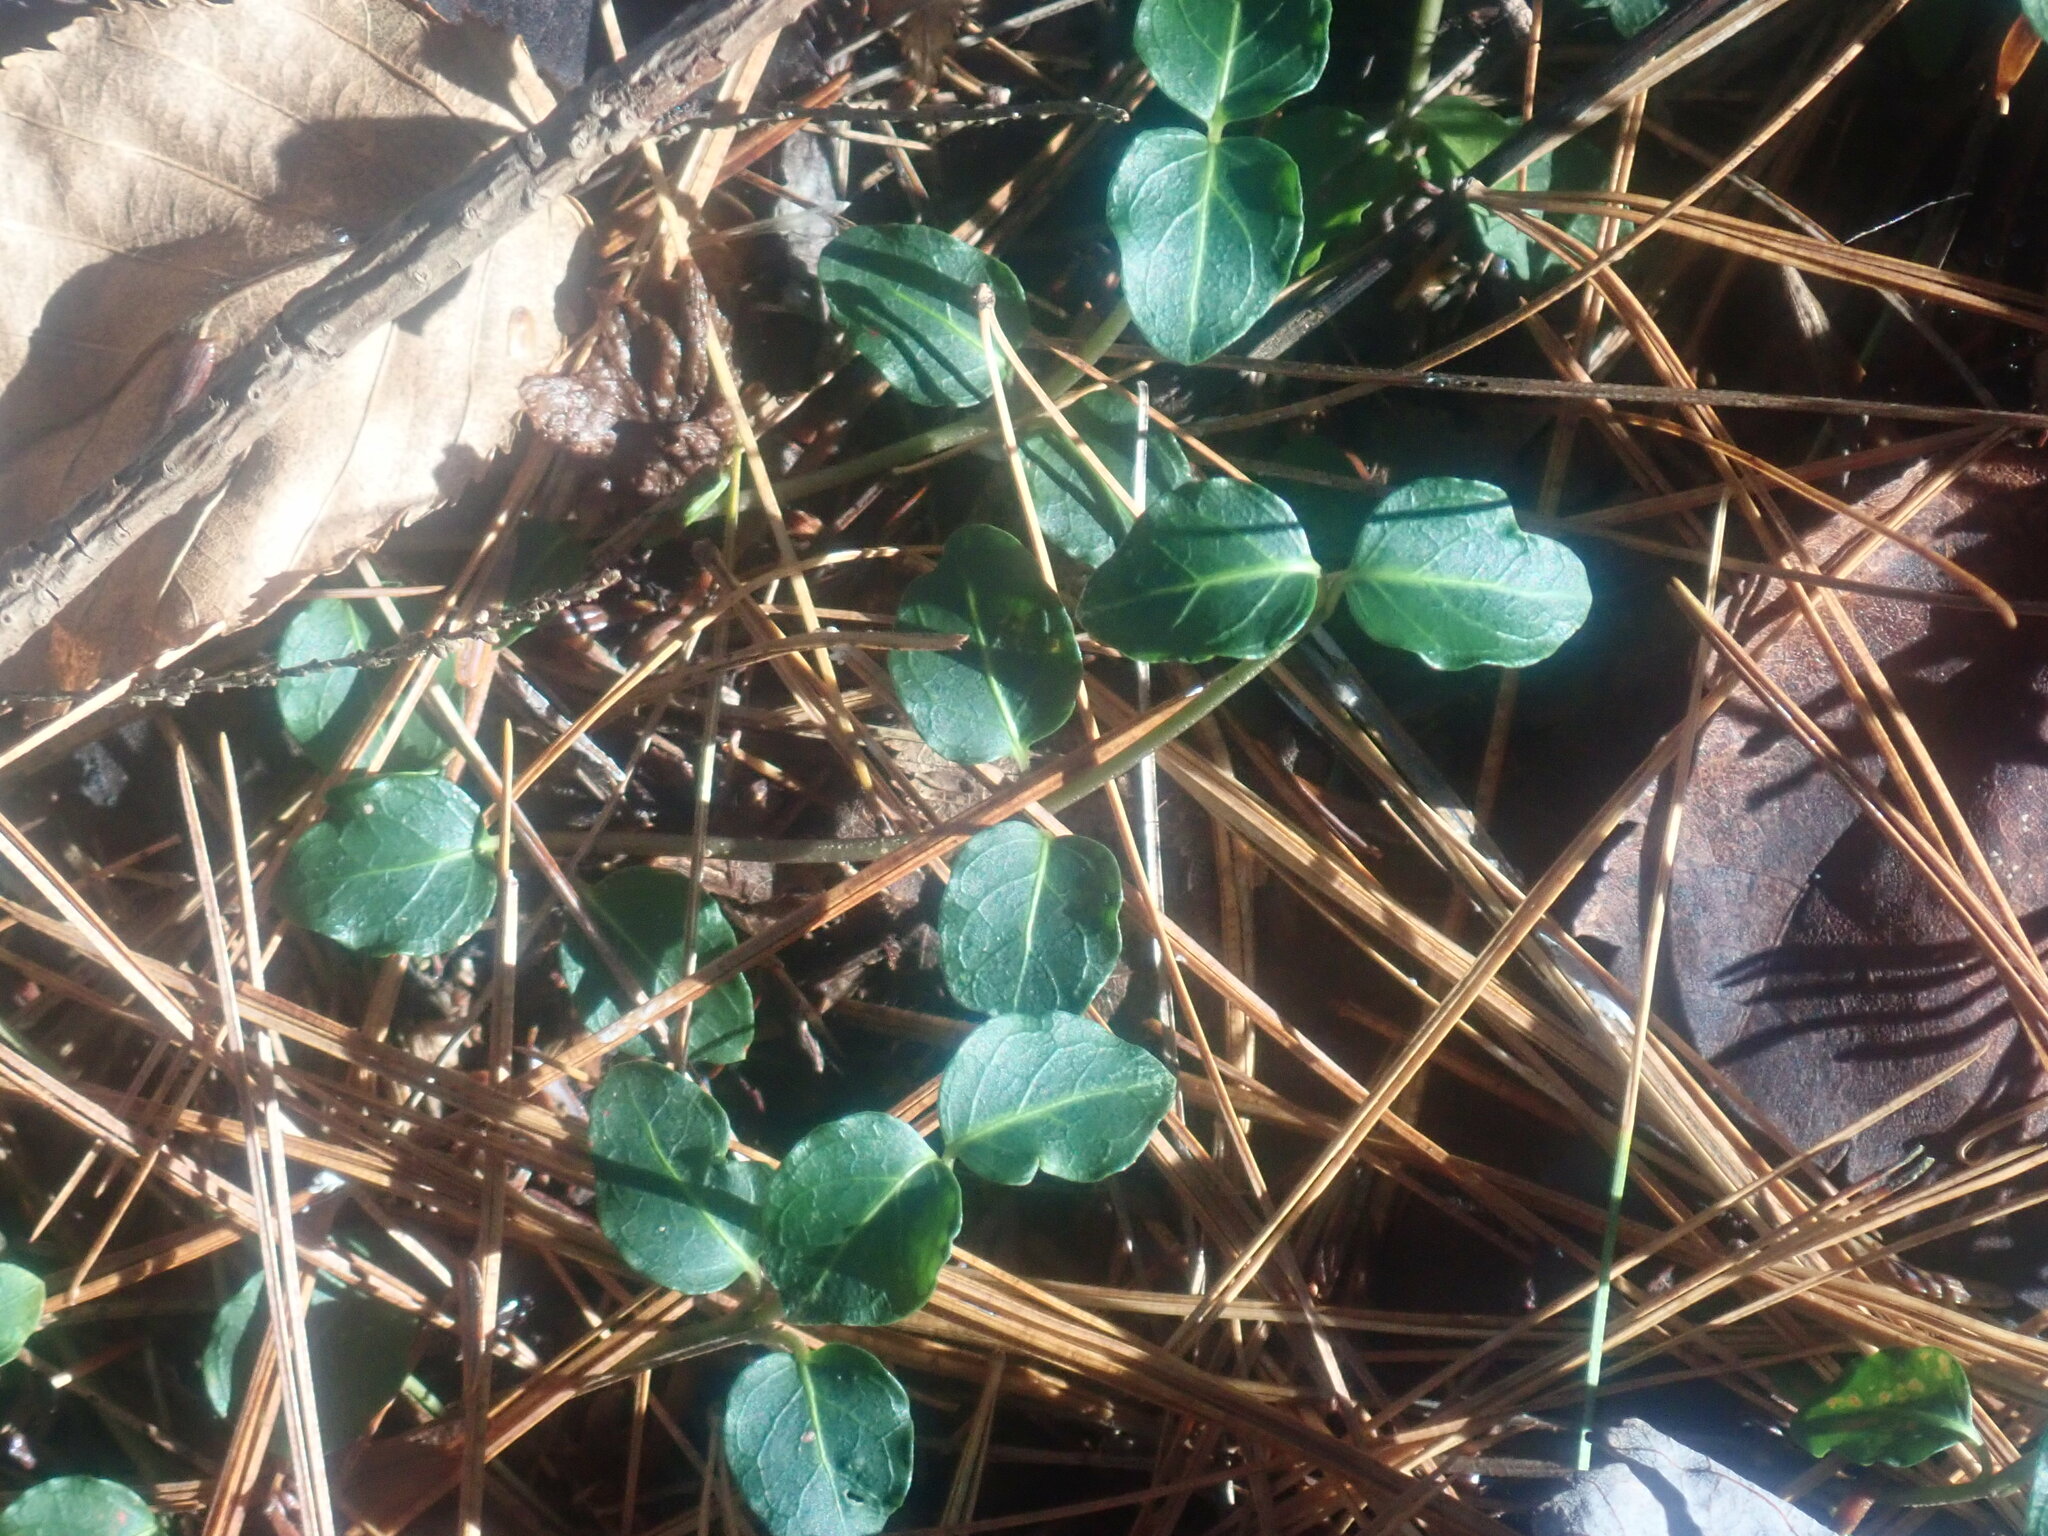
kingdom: Plantae
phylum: Tracheophyta
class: Magnoliopsida
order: Gentianales
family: Rubiaceae
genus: Mitchella
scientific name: Mitchella repens
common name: Partridge-berry
